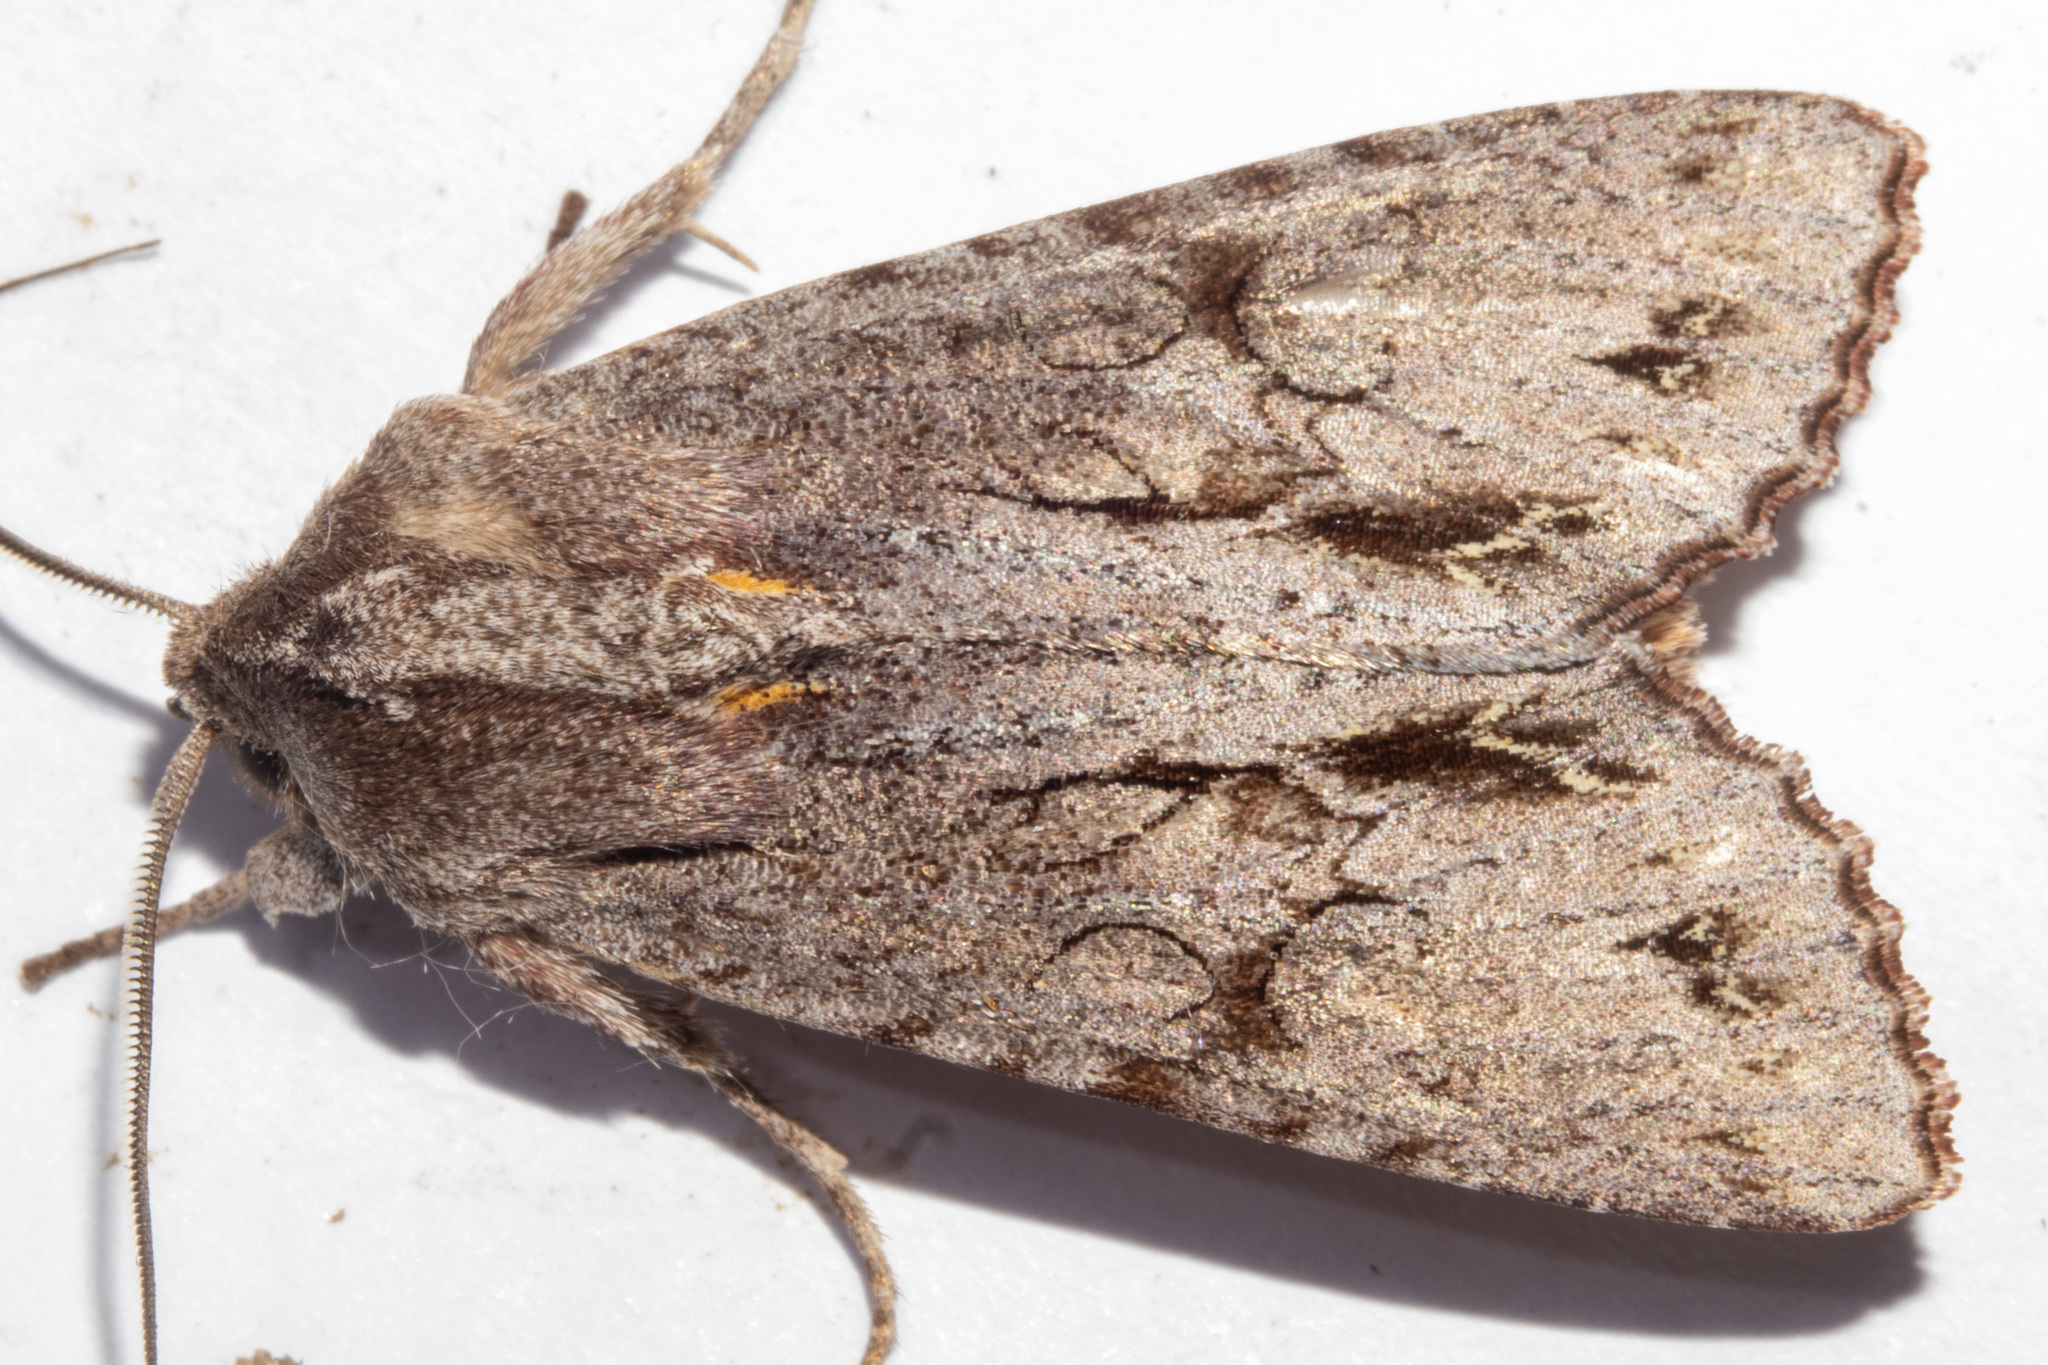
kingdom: Animalia
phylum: Arthropoda
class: Insecta
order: Lepidoptera
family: Noctuidae
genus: Ichneutica
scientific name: Ichneutica
